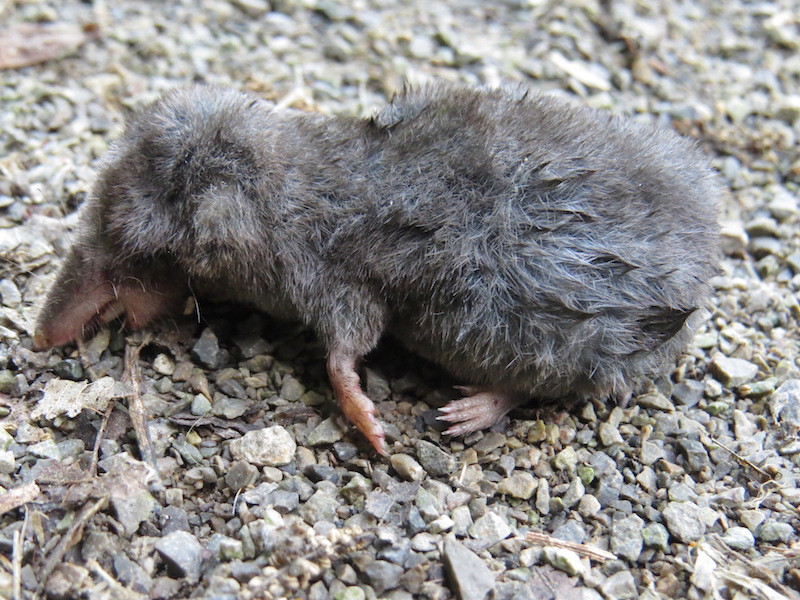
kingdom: Animalia
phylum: Chordata
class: Mammalia
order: Soricomorpha
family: Soricidae
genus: Blarina
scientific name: Blarina brevicauda
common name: Northern short-tailed shrew
